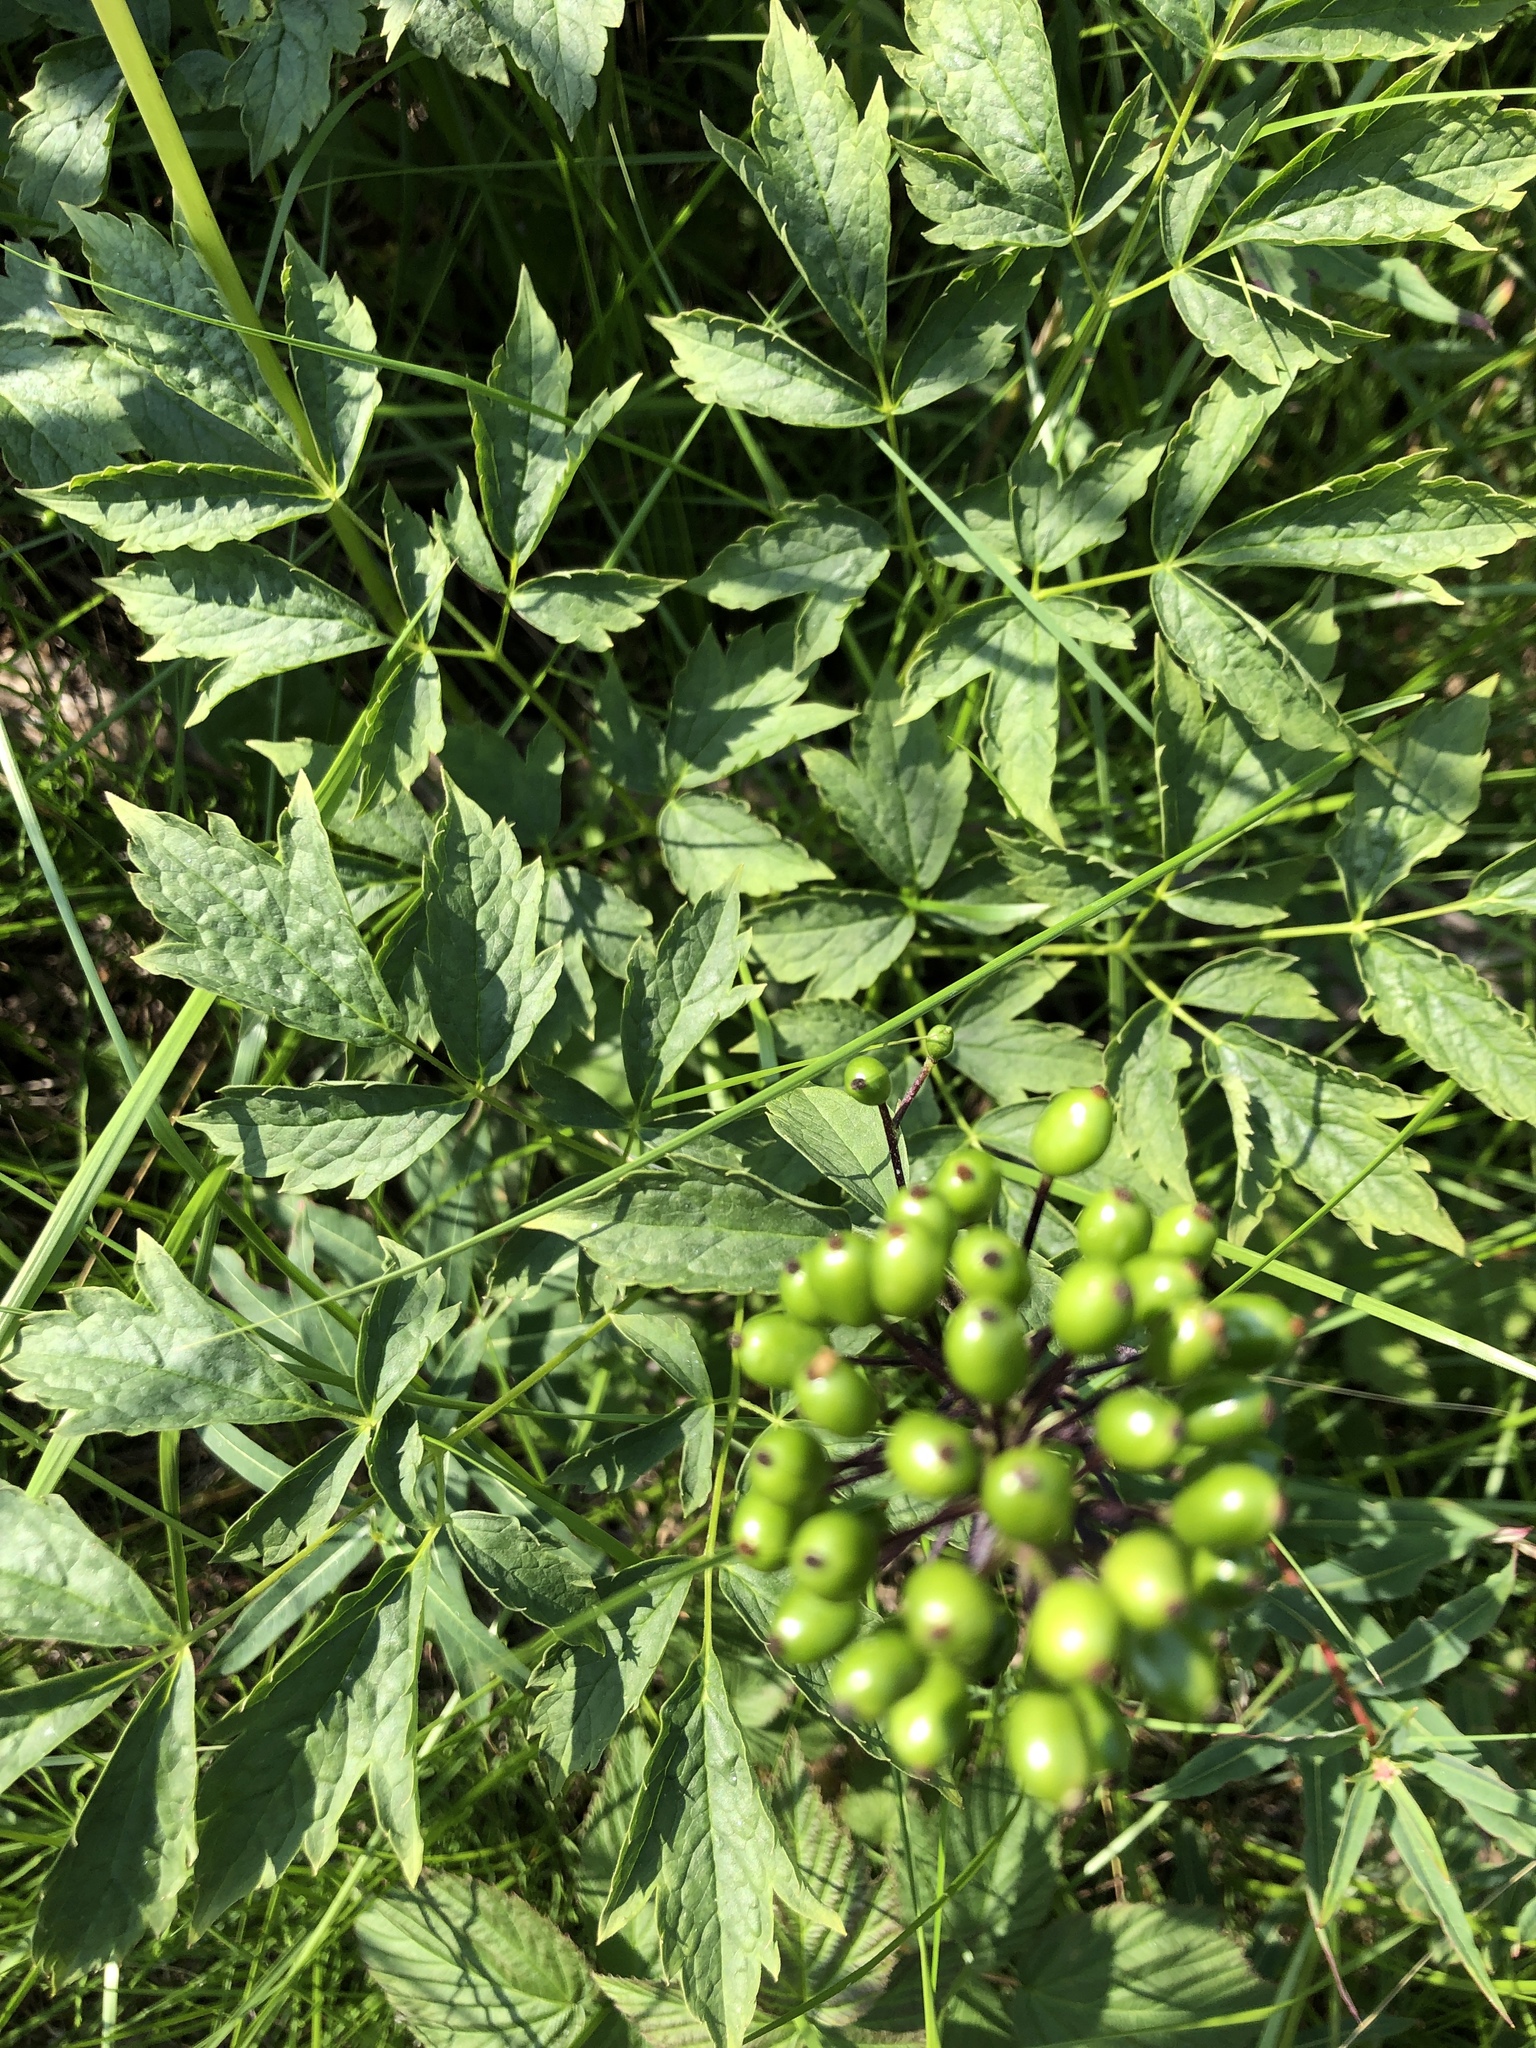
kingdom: Plantae
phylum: Tracheophyta
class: Magnoliopsida
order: Ranunculales
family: Ranunculaceae
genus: Actaea
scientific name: Actaea rubra
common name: Red baneberry
